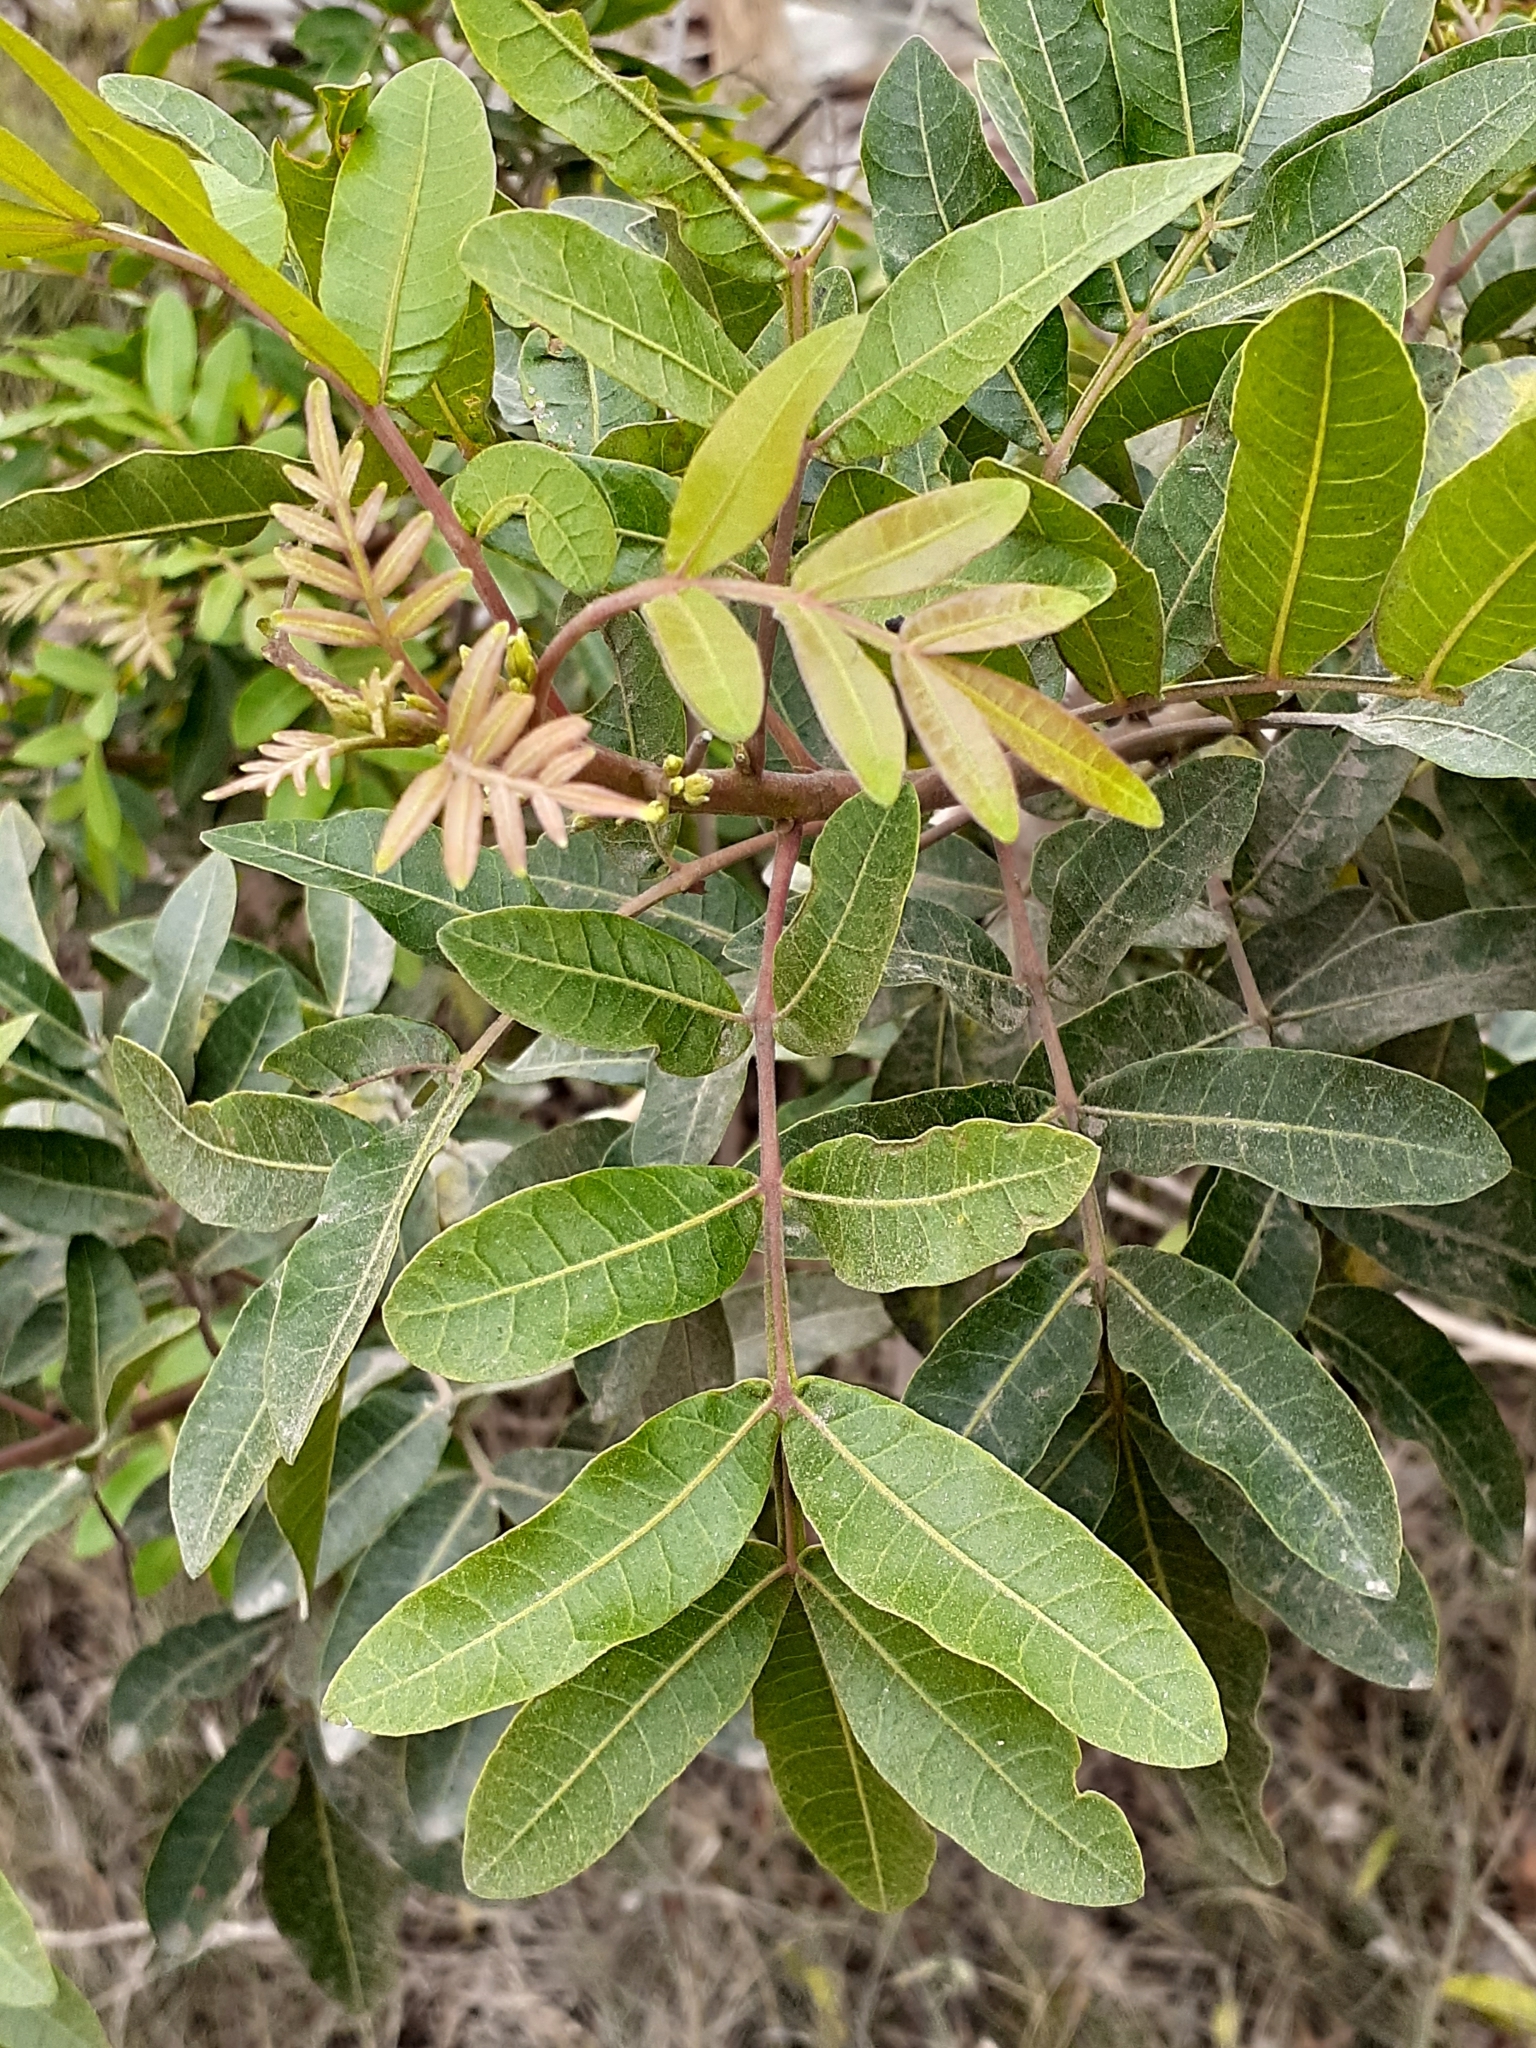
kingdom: Plantae
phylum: Tracheophyta
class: Magnoliopsida
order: Sapindales
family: Anacardiaceae
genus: Schinus
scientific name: Schinus terebinthifolia
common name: Brazilian peppertree
